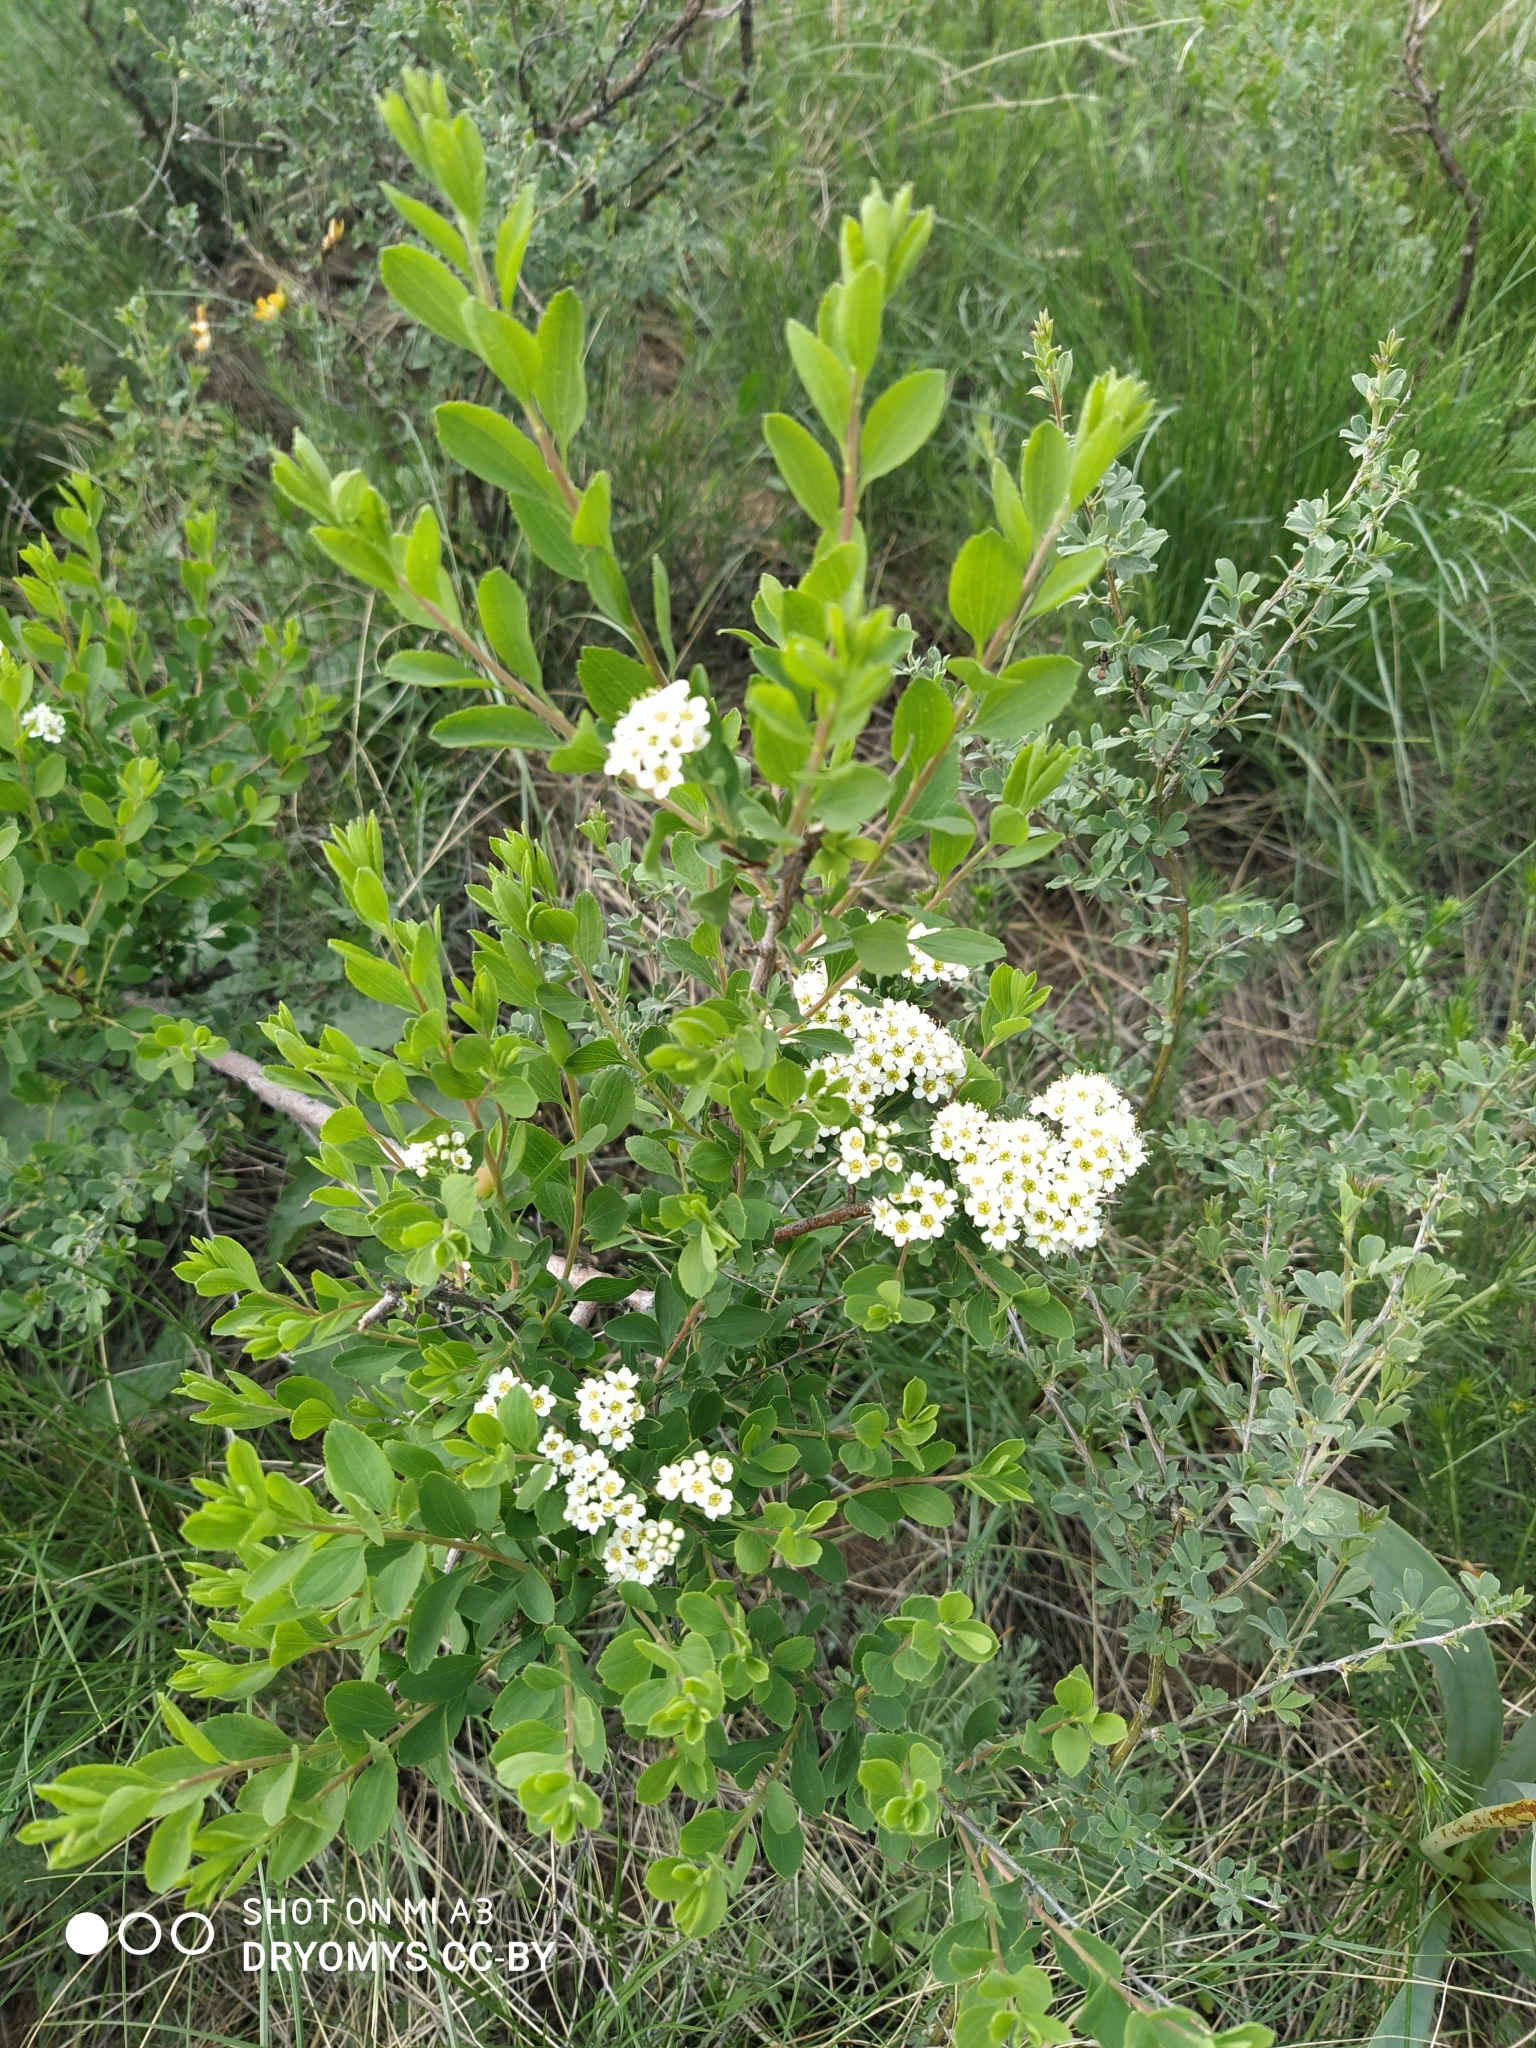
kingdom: Plantae
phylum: Tracheophyta
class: Magnoliopsida
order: Rosales
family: Rosaceae
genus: Spiraea
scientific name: Spiraea hypericifolia
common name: Iberian spirea
